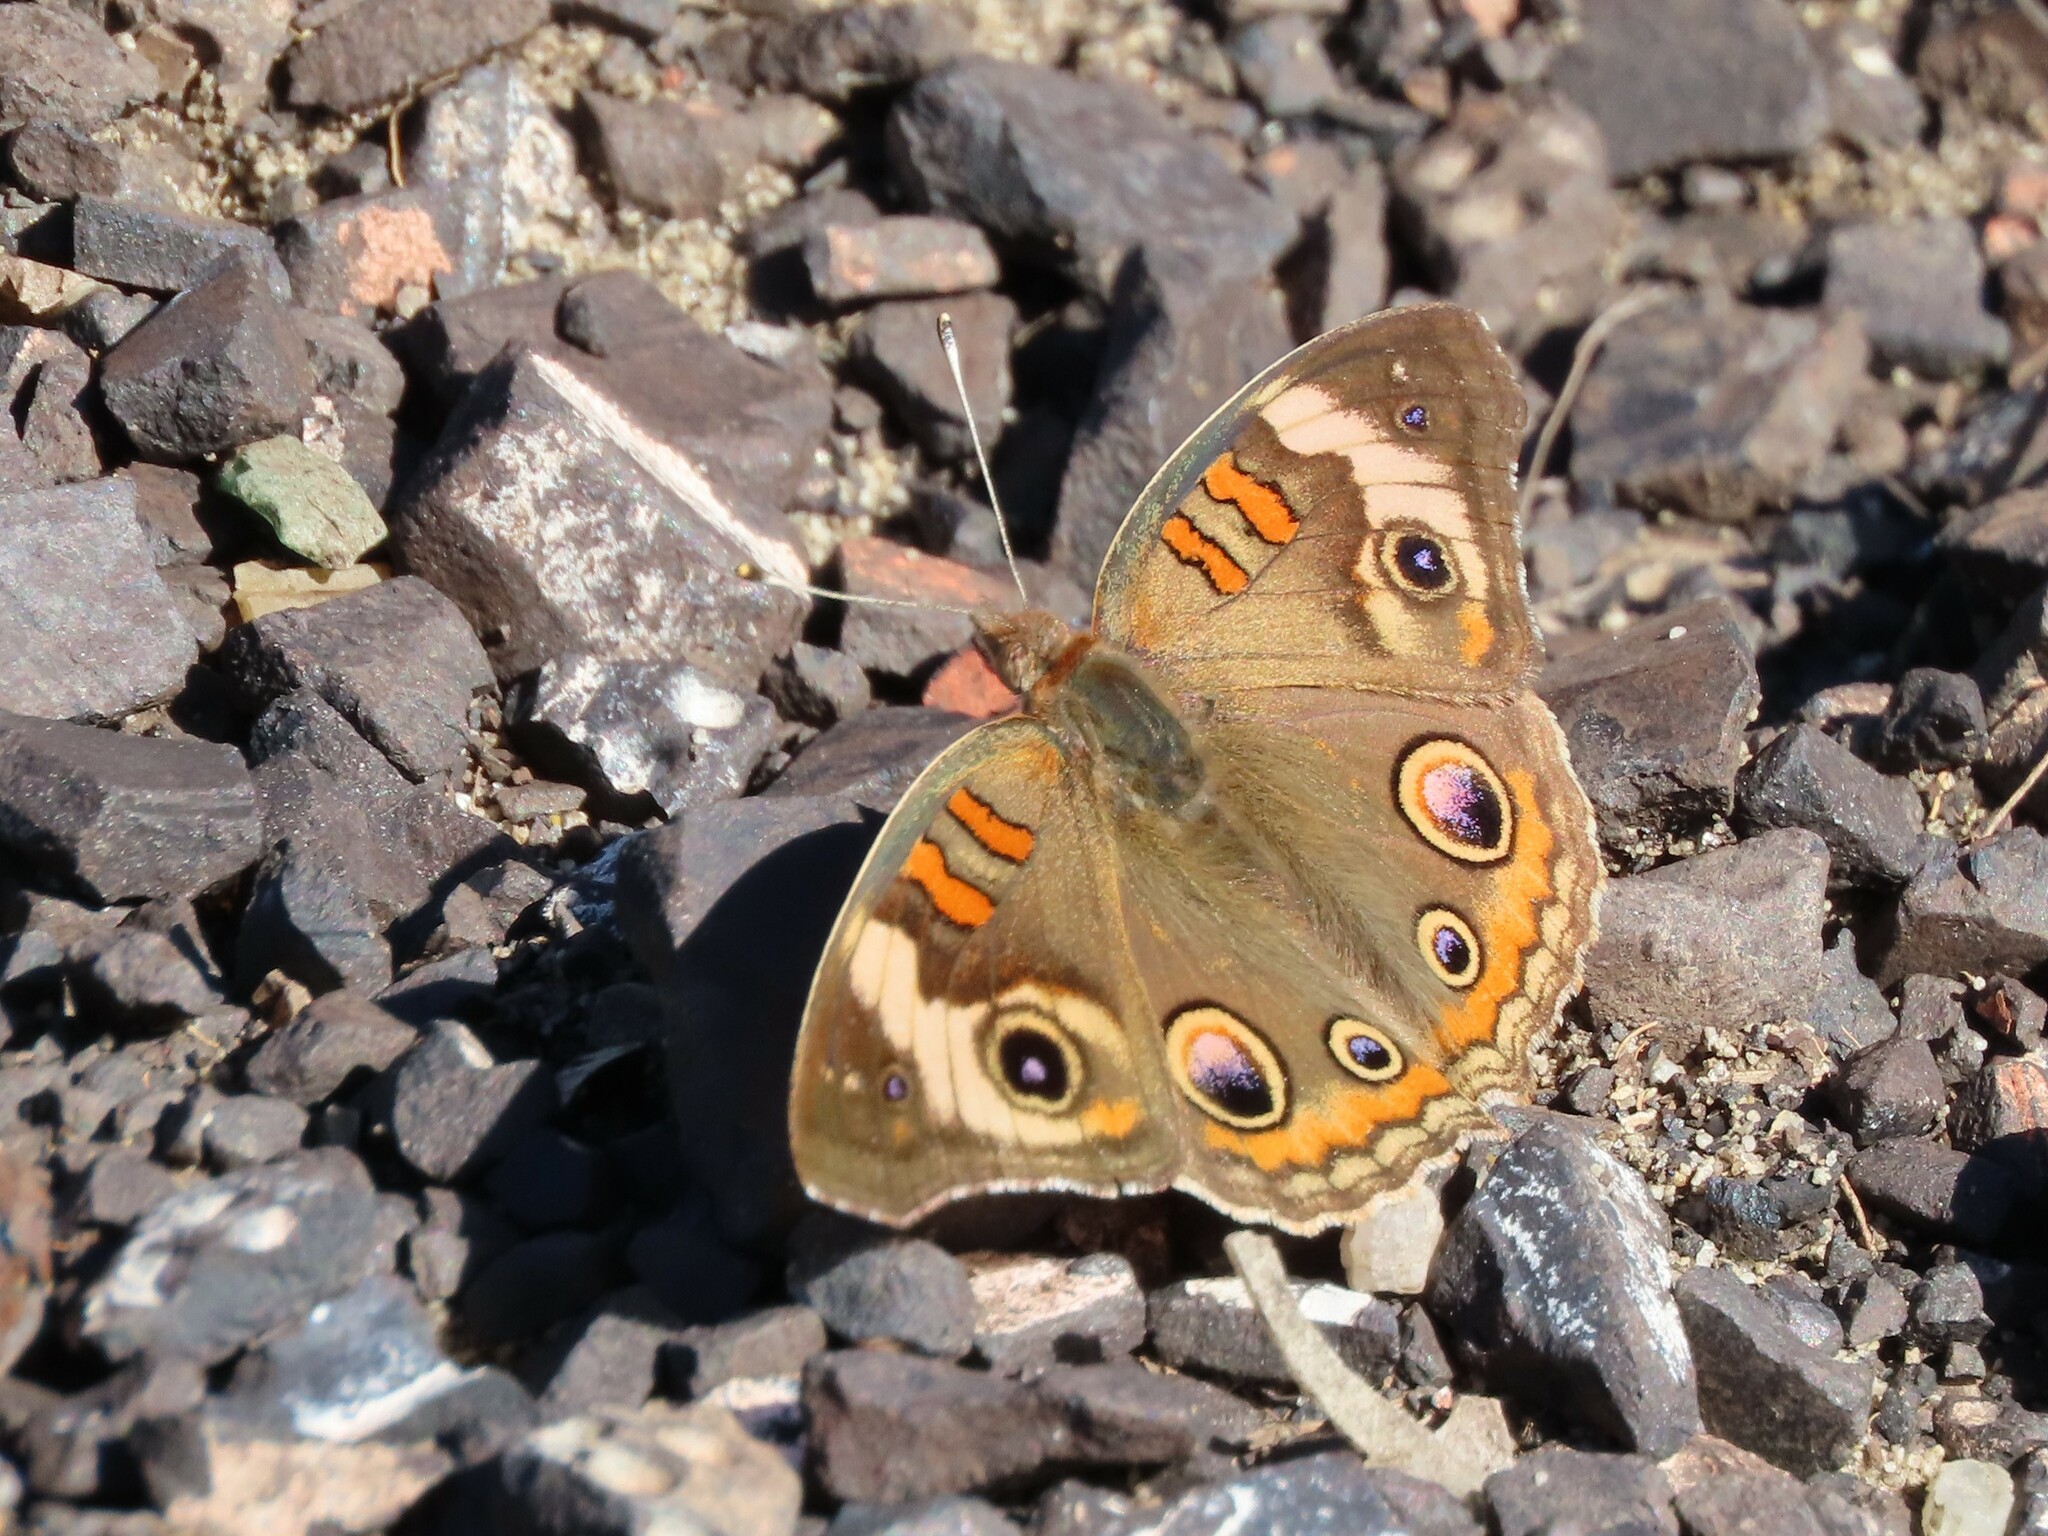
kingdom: Animalia
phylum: Arthropoda
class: Insecta
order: Lepidoptera
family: Nymphalidae
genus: Junonia
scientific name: Junonia coenia
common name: Common buckeye
